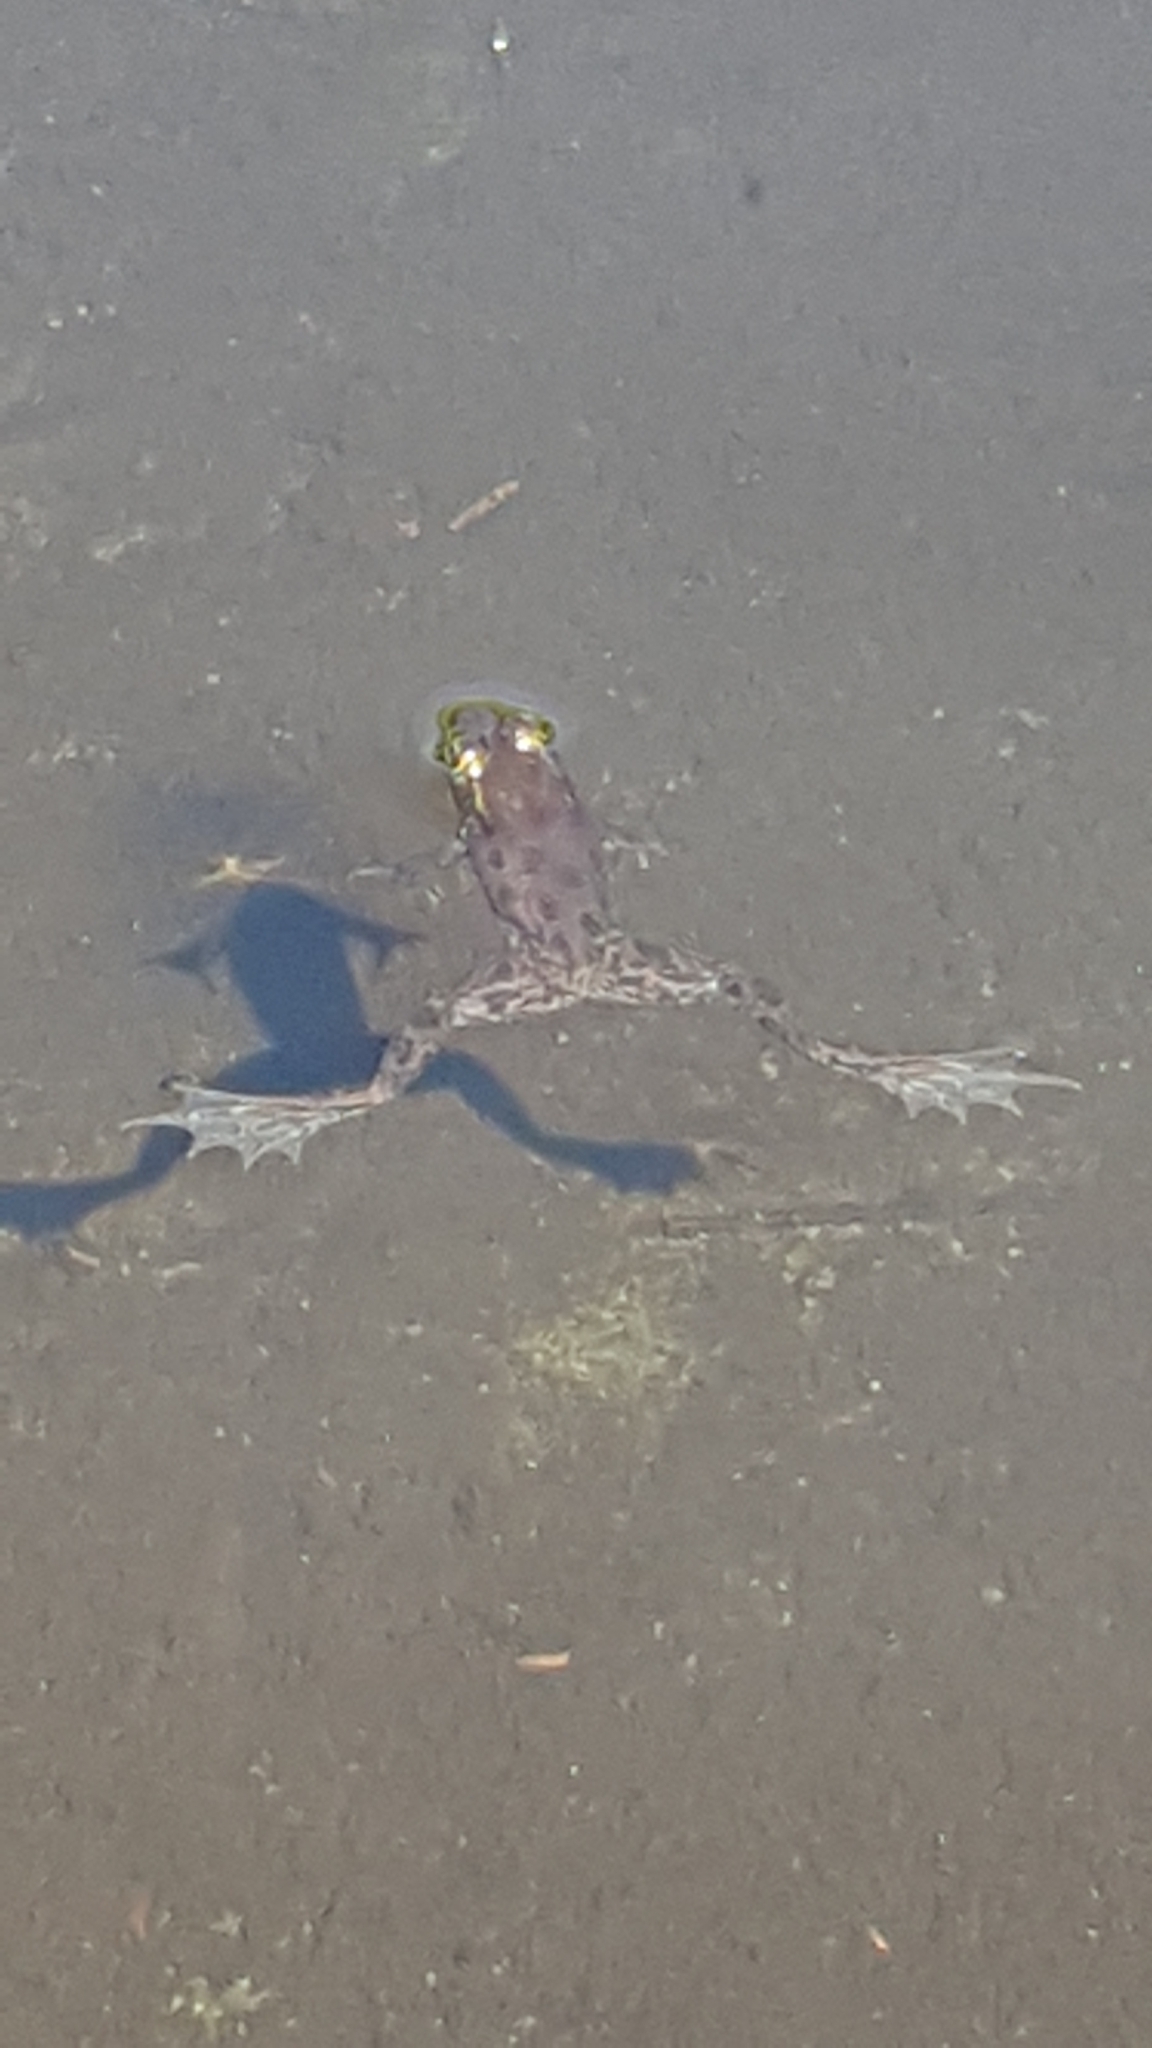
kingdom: Animalia
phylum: Chordata
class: Amphibia
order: Anura
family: Ranidae
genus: Lithobates
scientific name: Lithobates septentrionalis
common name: Mink frog
